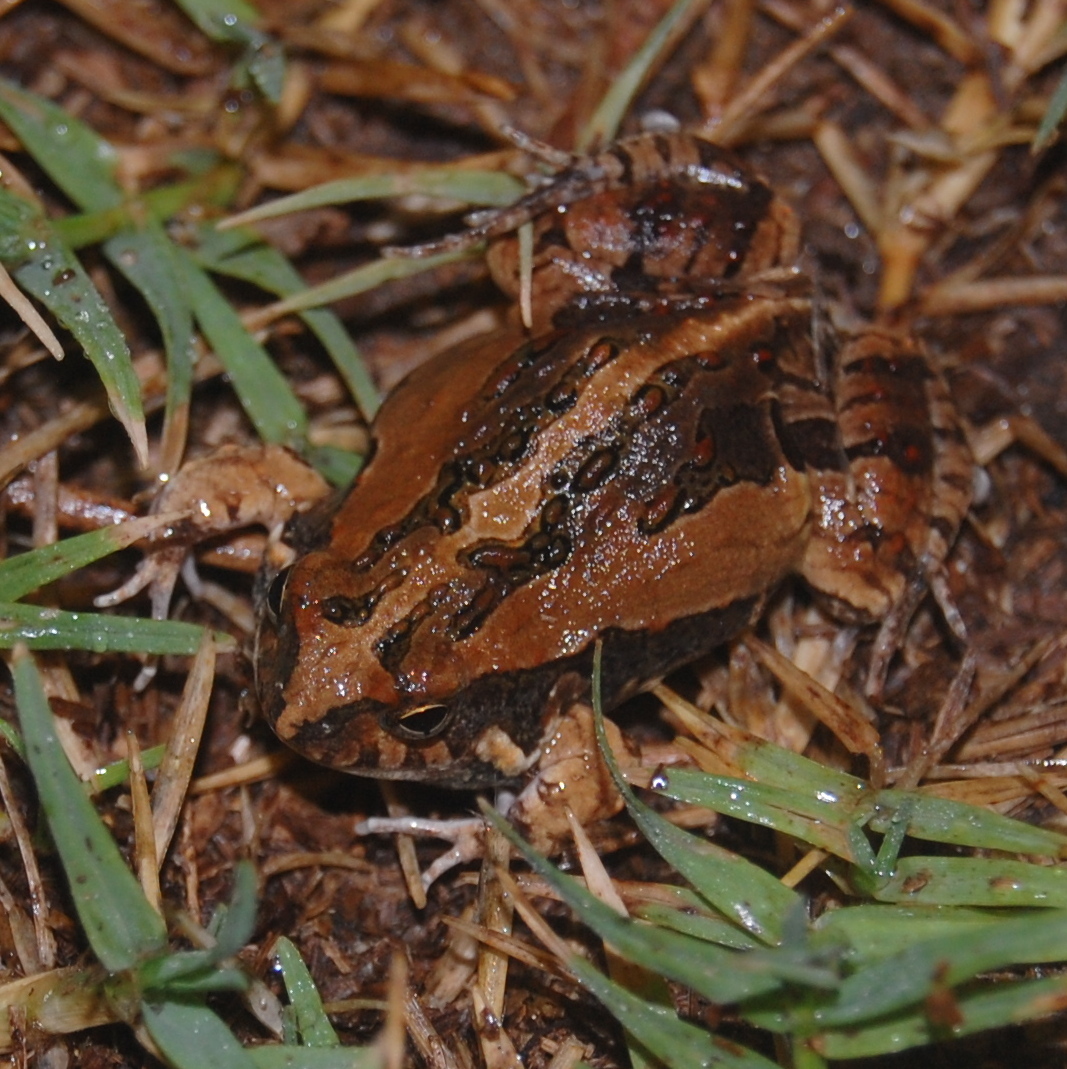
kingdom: Animalia
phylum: Chordata
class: Amphibia
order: Anura
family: Leptodactylidae
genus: Physalaemus
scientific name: Physalaemus biligonigerus
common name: Weeping frog
